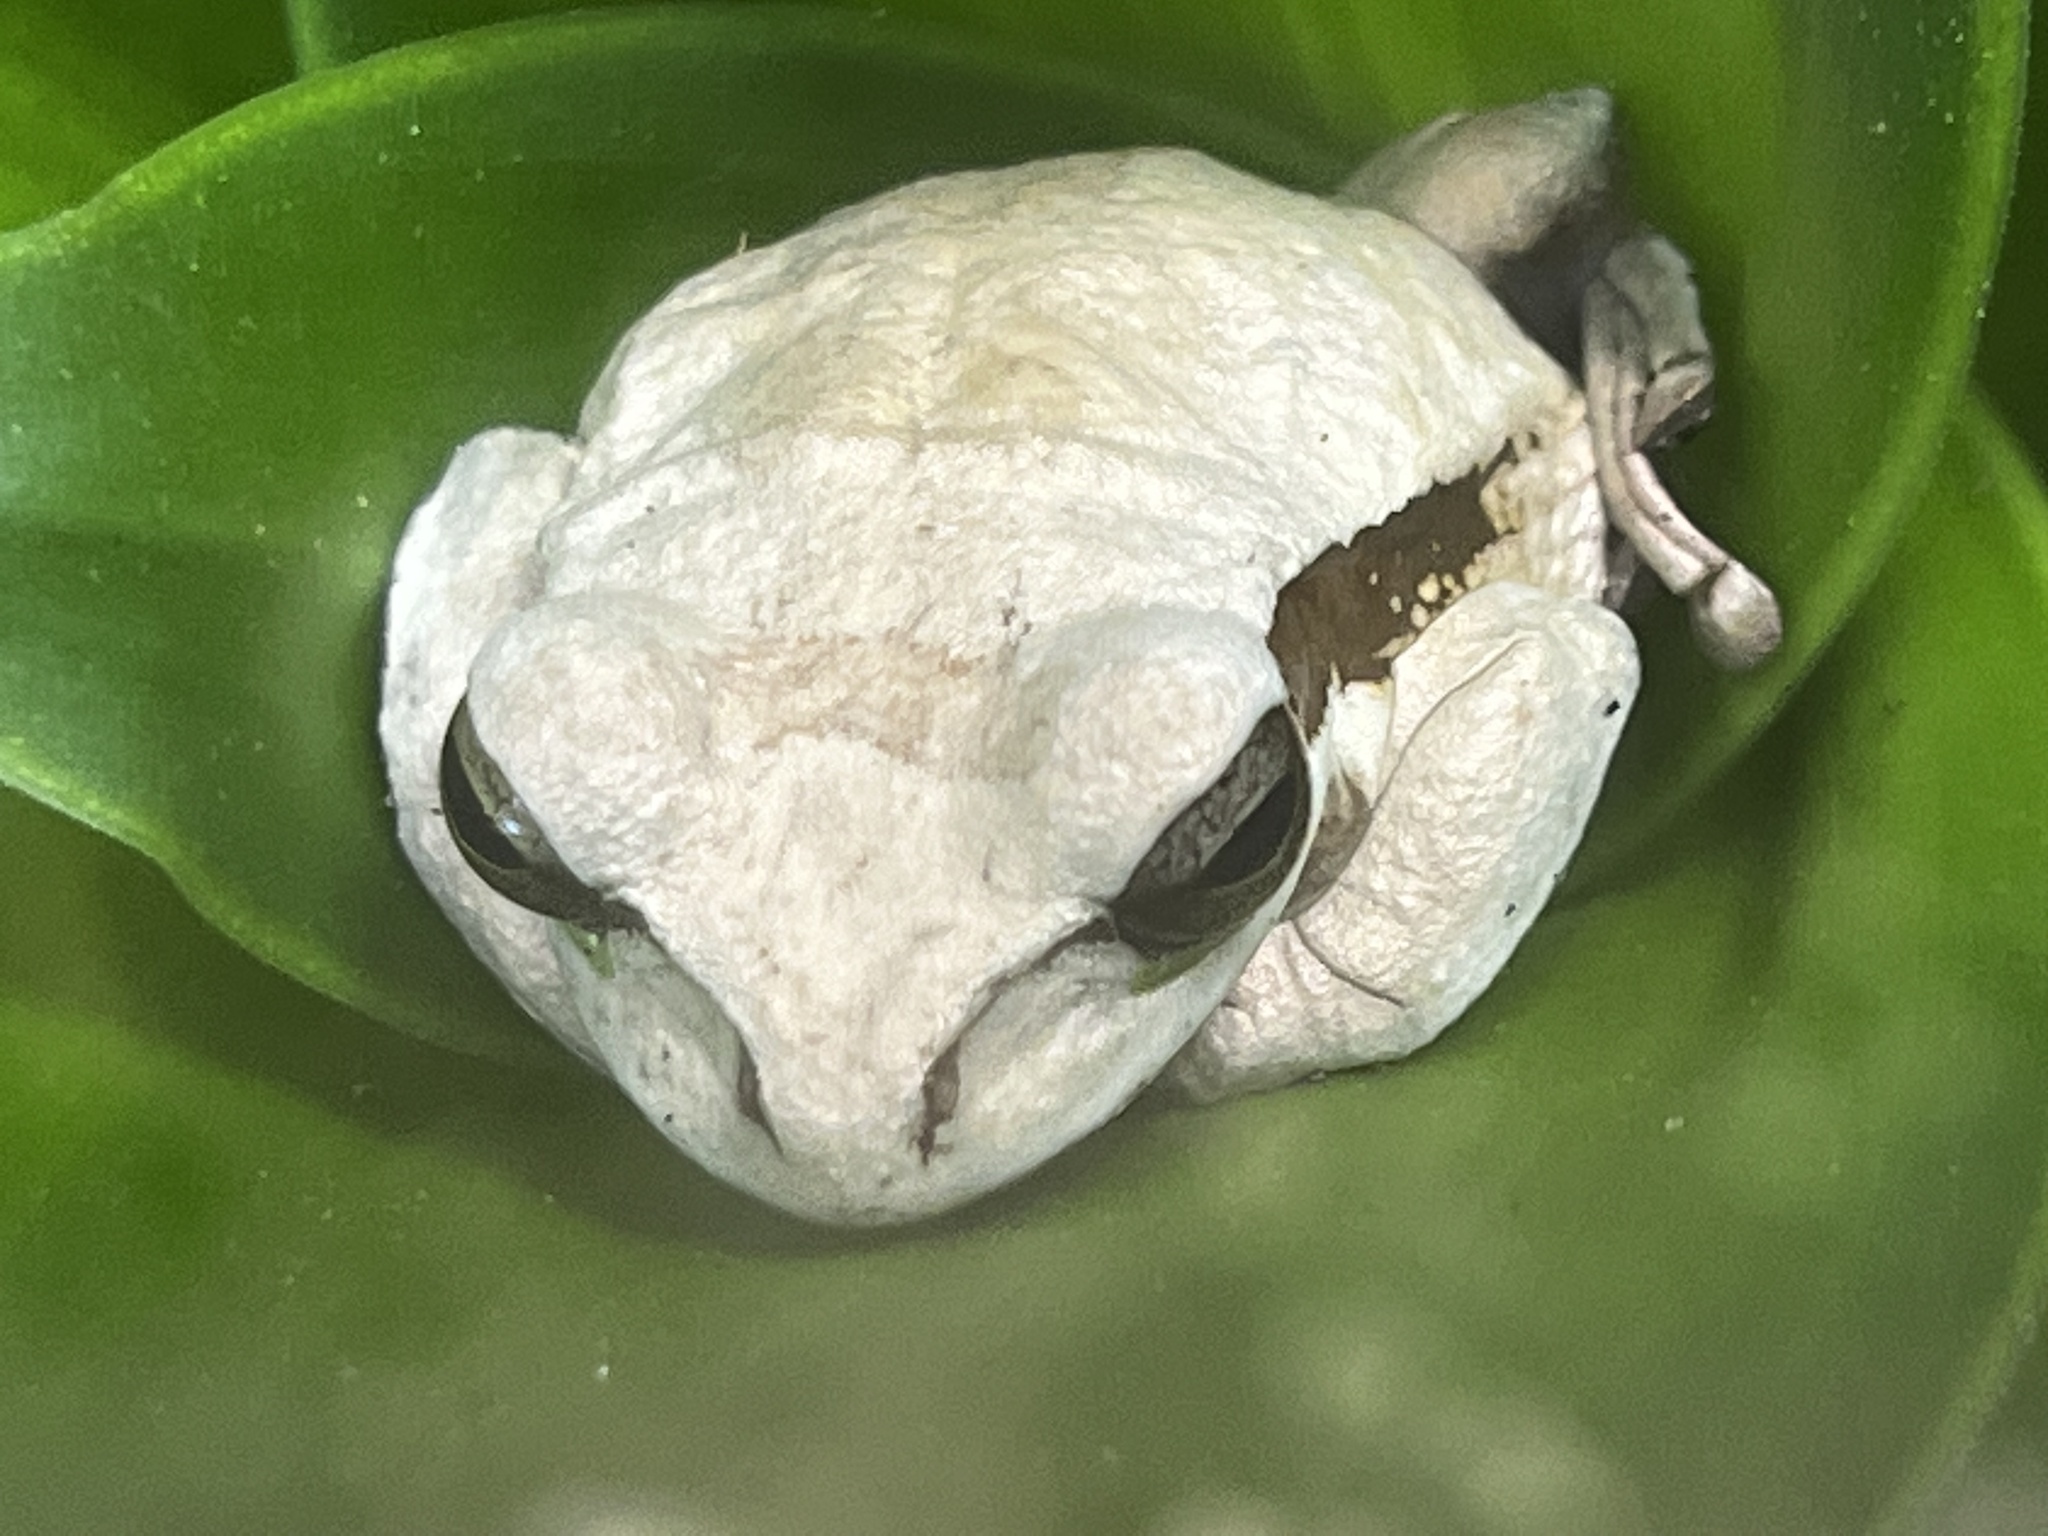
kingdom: Animalia
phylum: Chordata
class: Amphibia
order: Anura
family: Hylidae
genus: Smilisca
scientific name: Smilisca phaeota
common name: Central american smilisca
